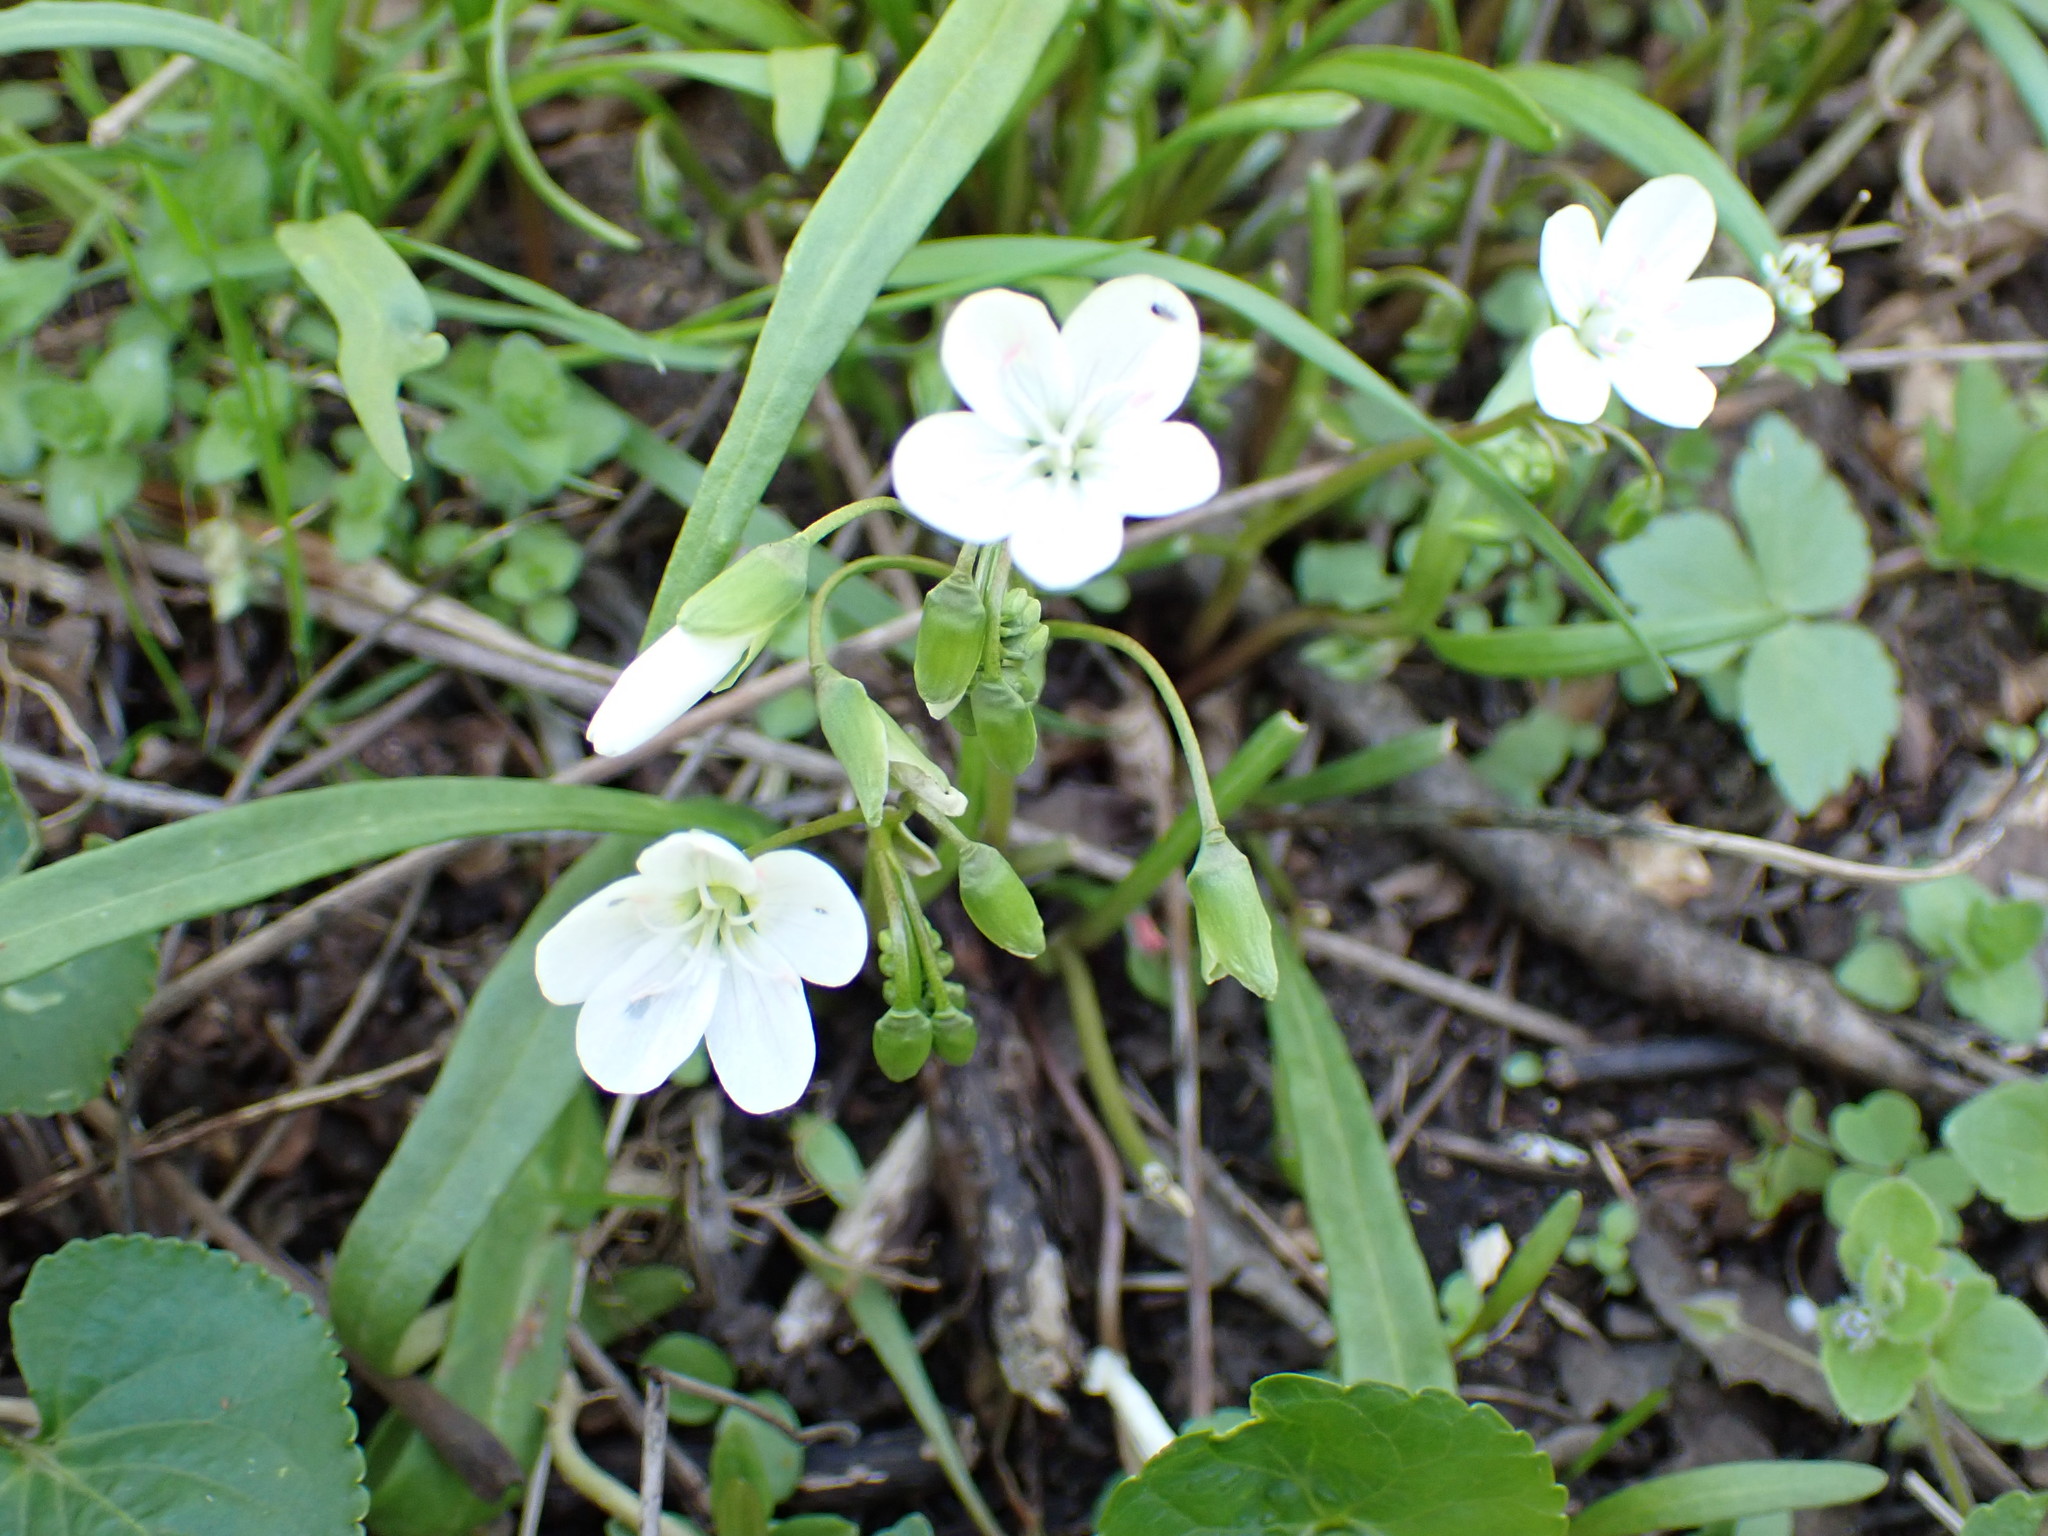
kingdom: Plantae
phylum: Tracheophyta
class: Magnoliopsida
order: Caryophyllales
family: Montiaceae
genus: Claytonia
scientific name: Claytonia virginica
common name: Virginia springbeauty
